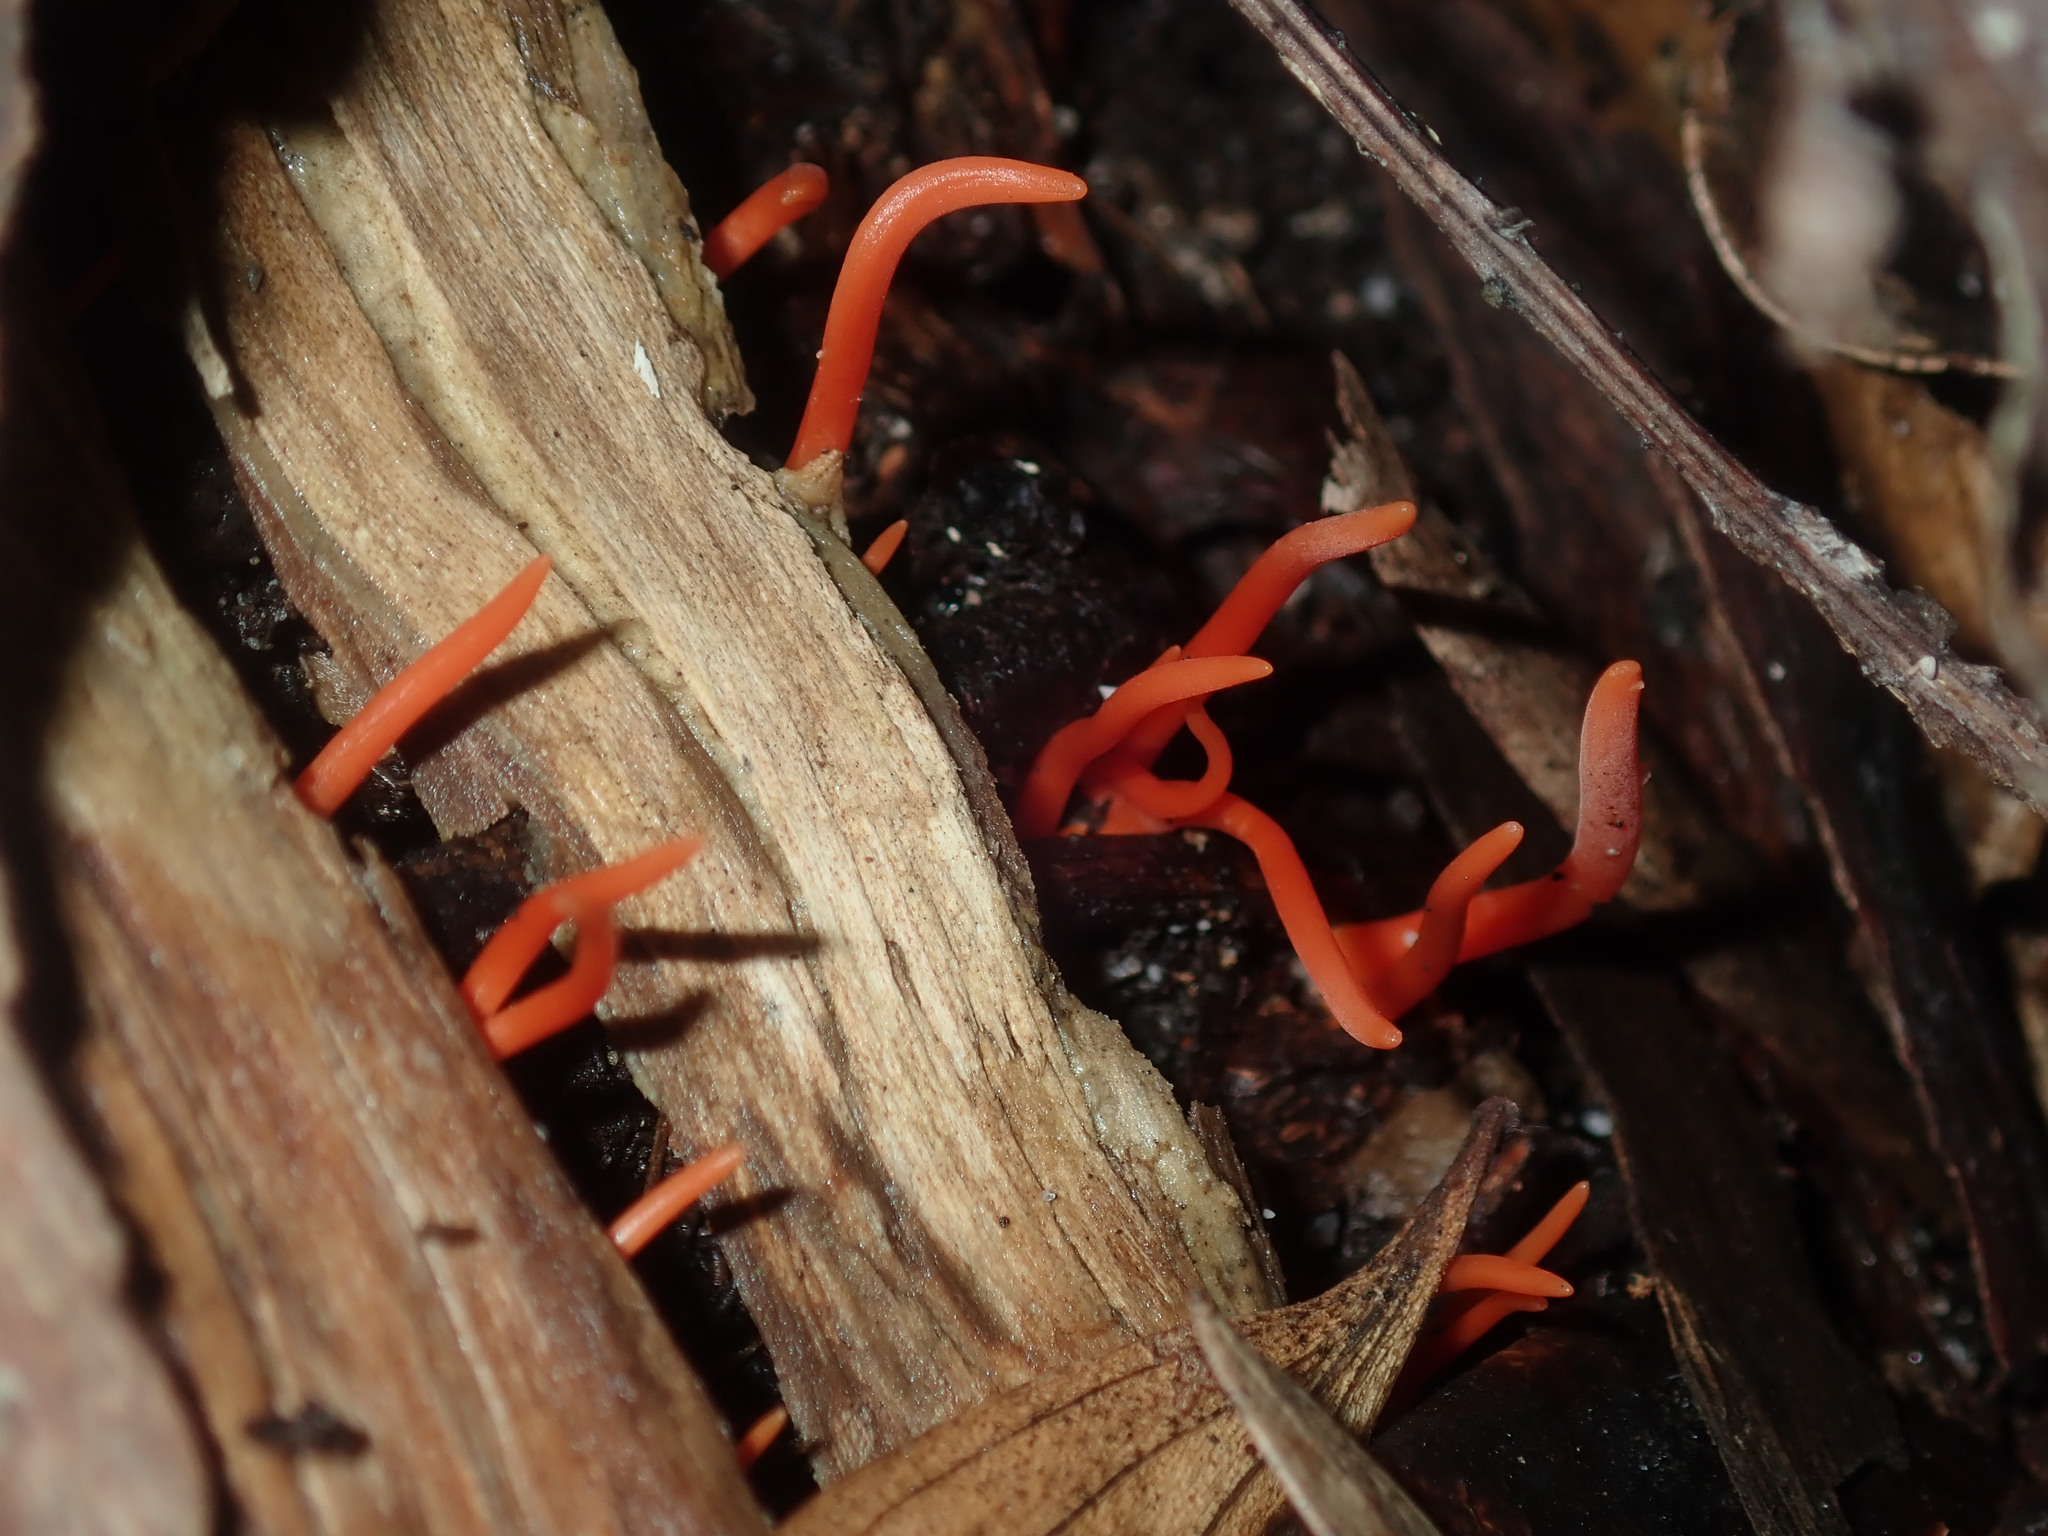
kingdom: Fungi
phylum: Basidiomycota
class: Agaricomycetes
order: Agaricales
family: Clavariaceae
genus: Clavulinopsis
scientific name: Clavulinopsis sulcata
